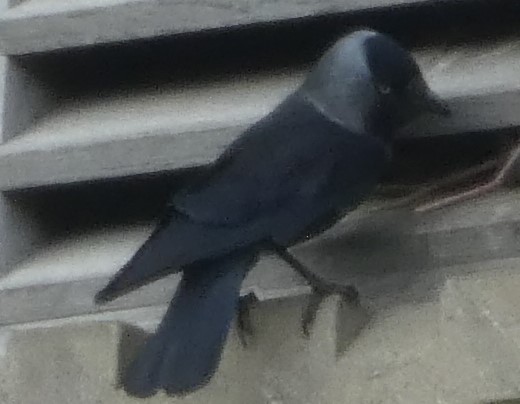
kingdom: Animalia
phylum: Chordata
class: Aves
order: Passeriformes
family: Corvidae
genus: Coloeus
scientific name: Coloeus monedula
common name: Western jackdaw
